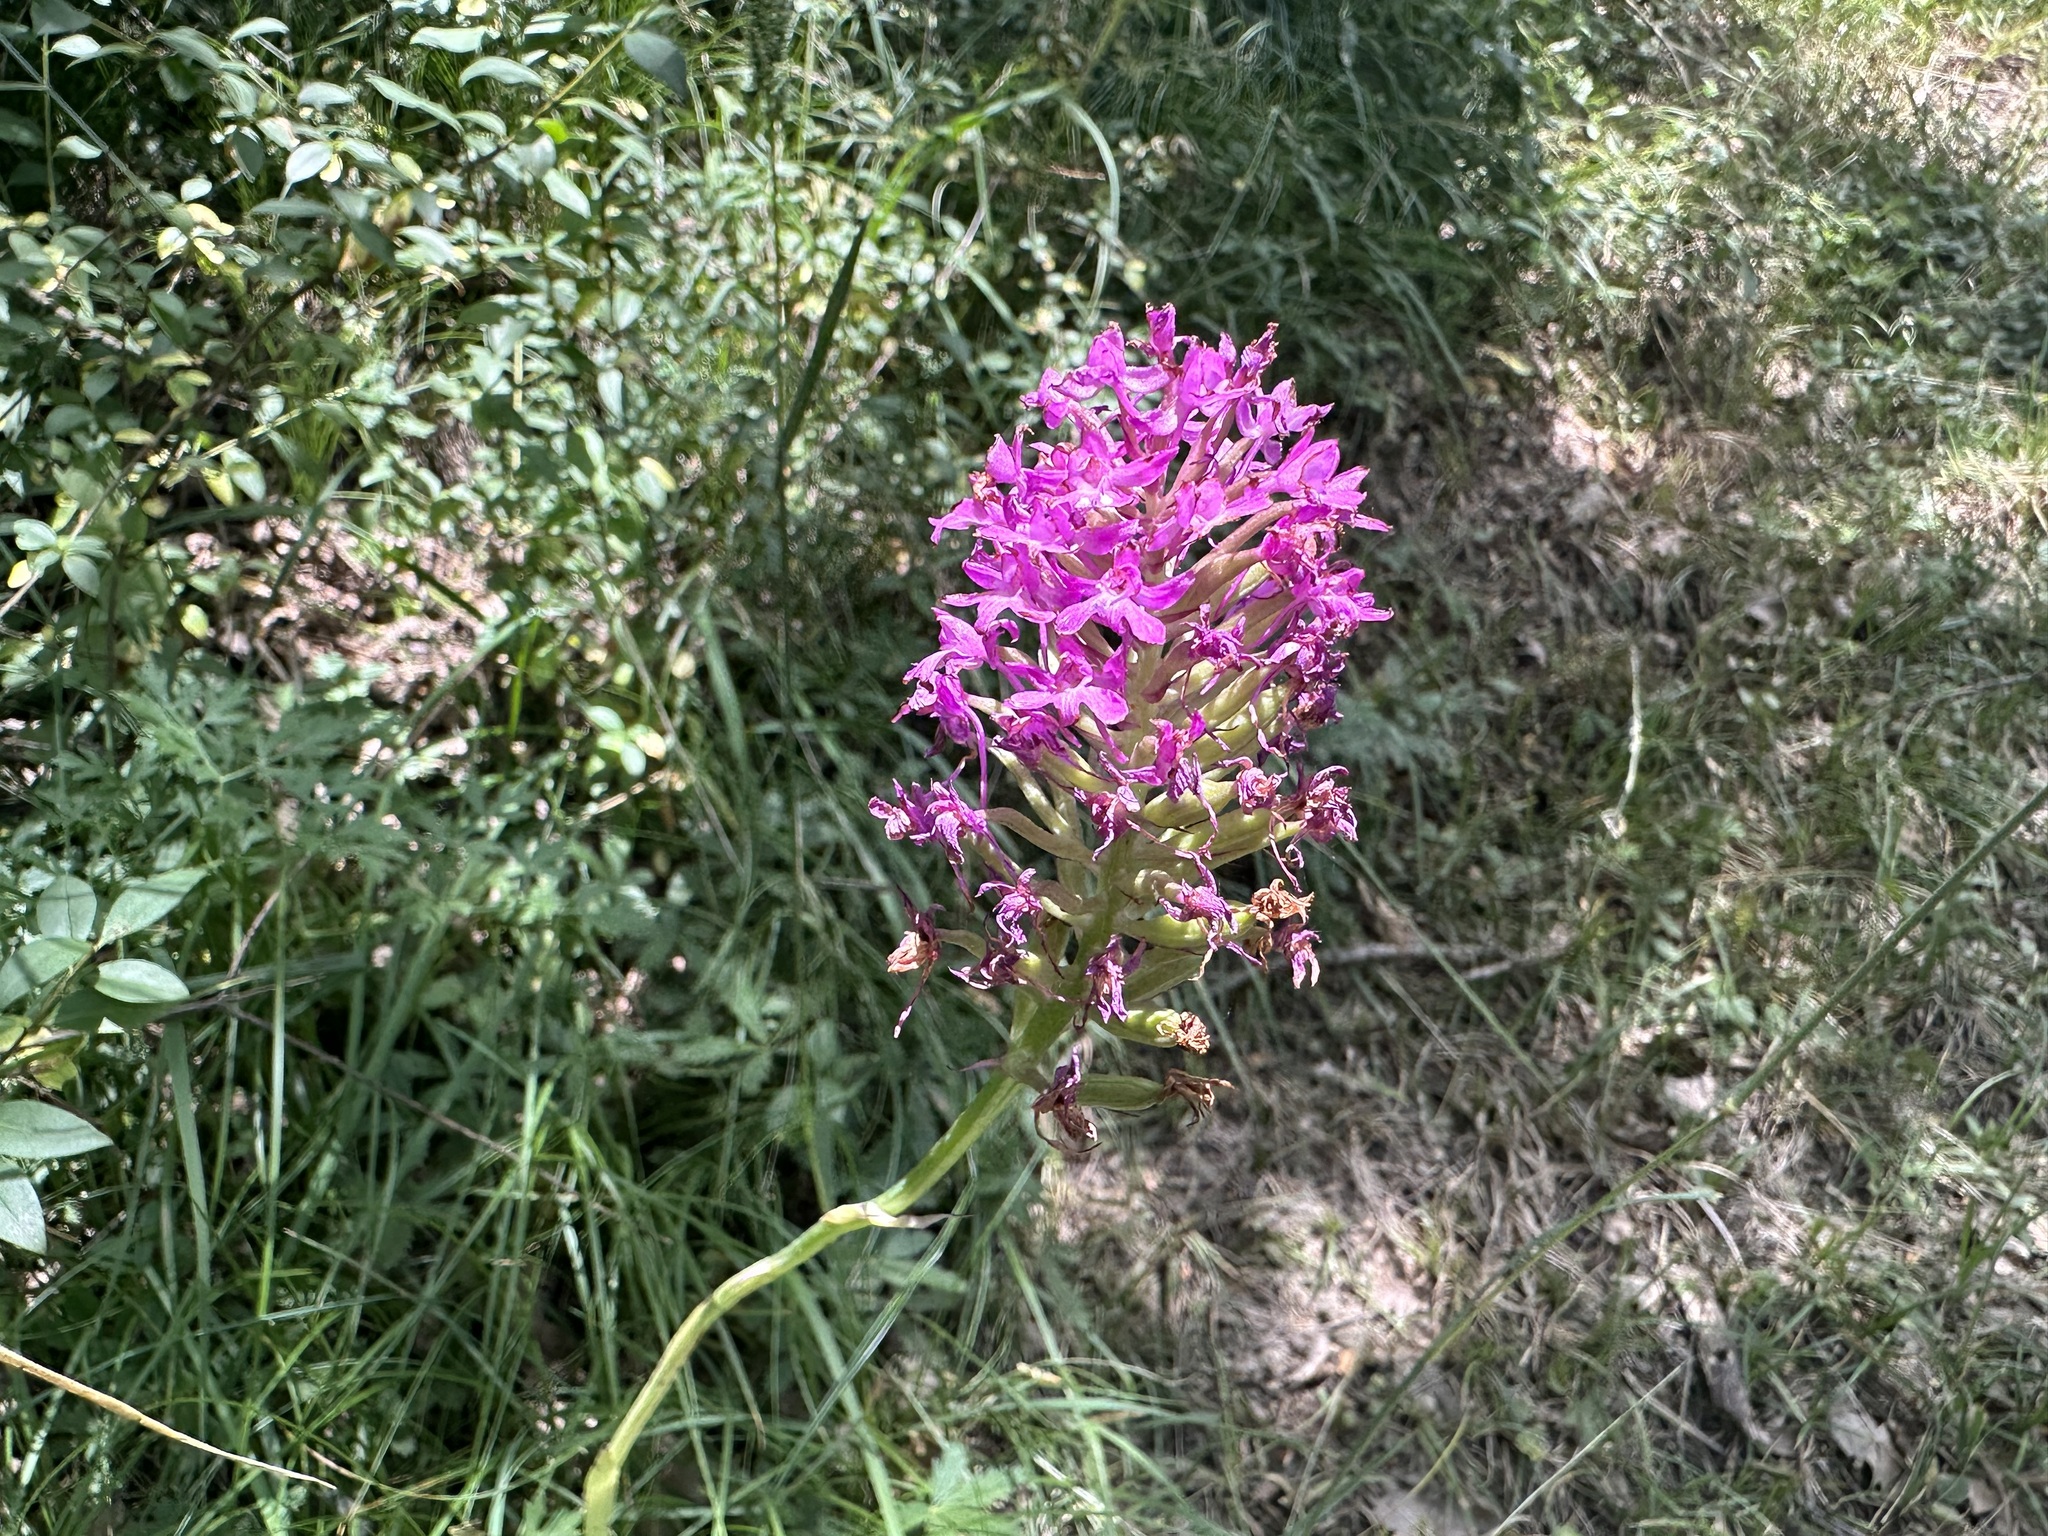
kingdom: Plantae
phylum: Tracheophyta
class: Liliopsida
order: Asparagales
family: Orchidaceae
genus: Anacamptis
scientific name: Anacamptis pyramidalis
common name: Pyramidal orchid
